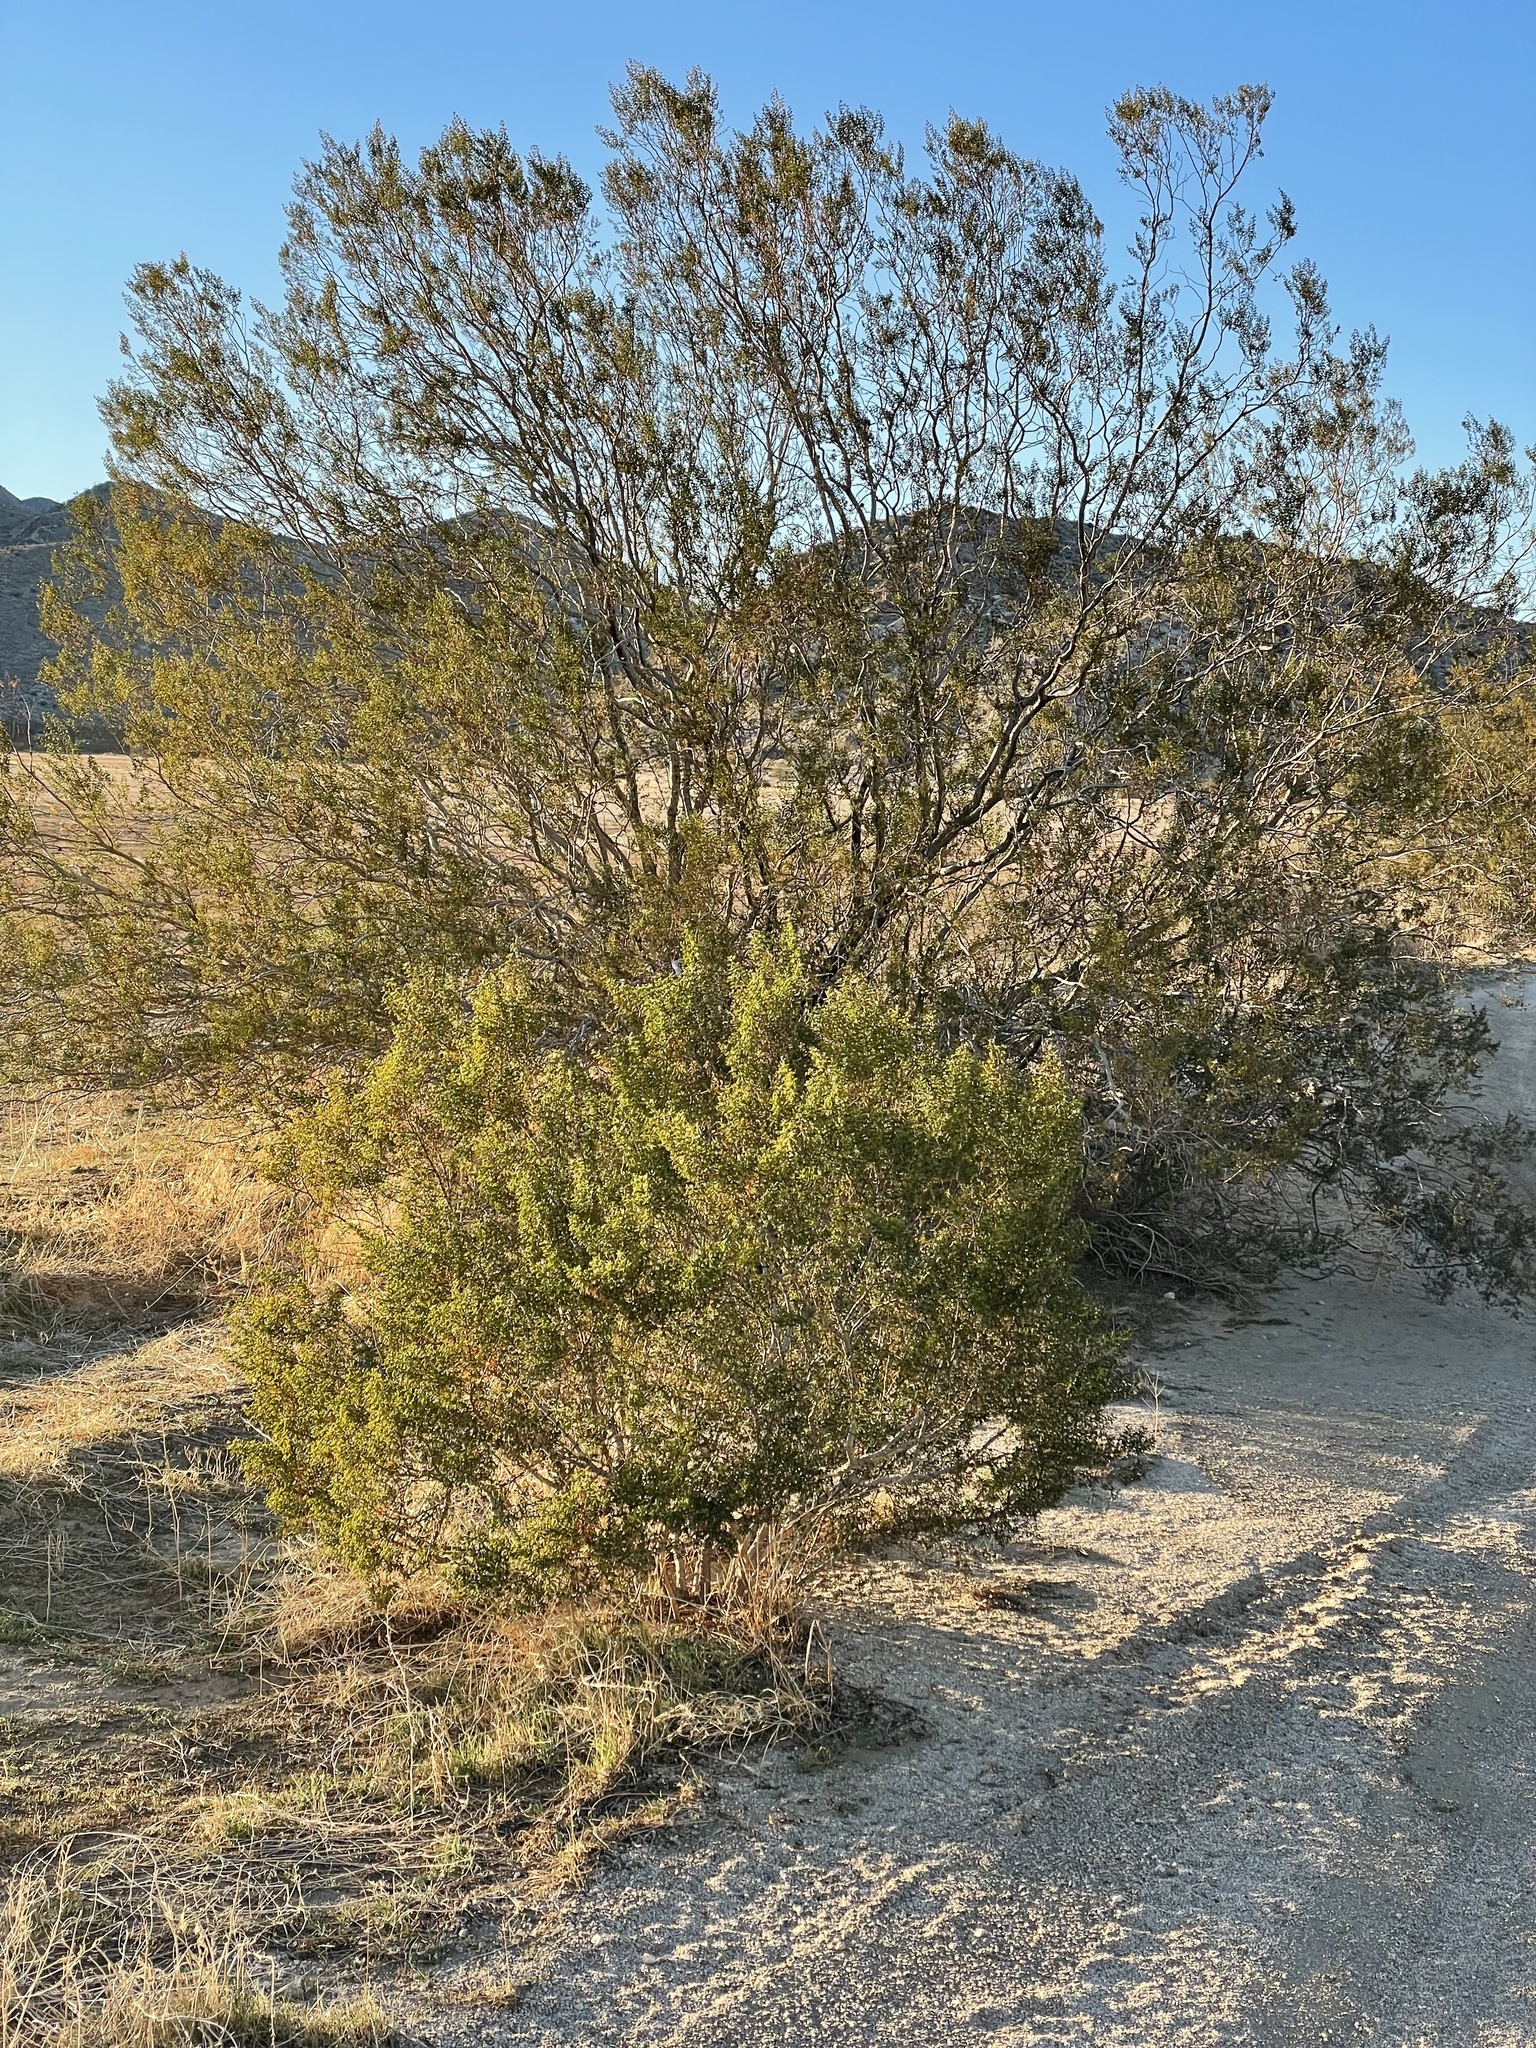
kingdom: Plantae
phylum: Tracheophyta
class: Magnoliopsida
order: Zygophyllales
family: Zygophyllaceae
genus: Larrea
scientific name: Larrea tridentata
